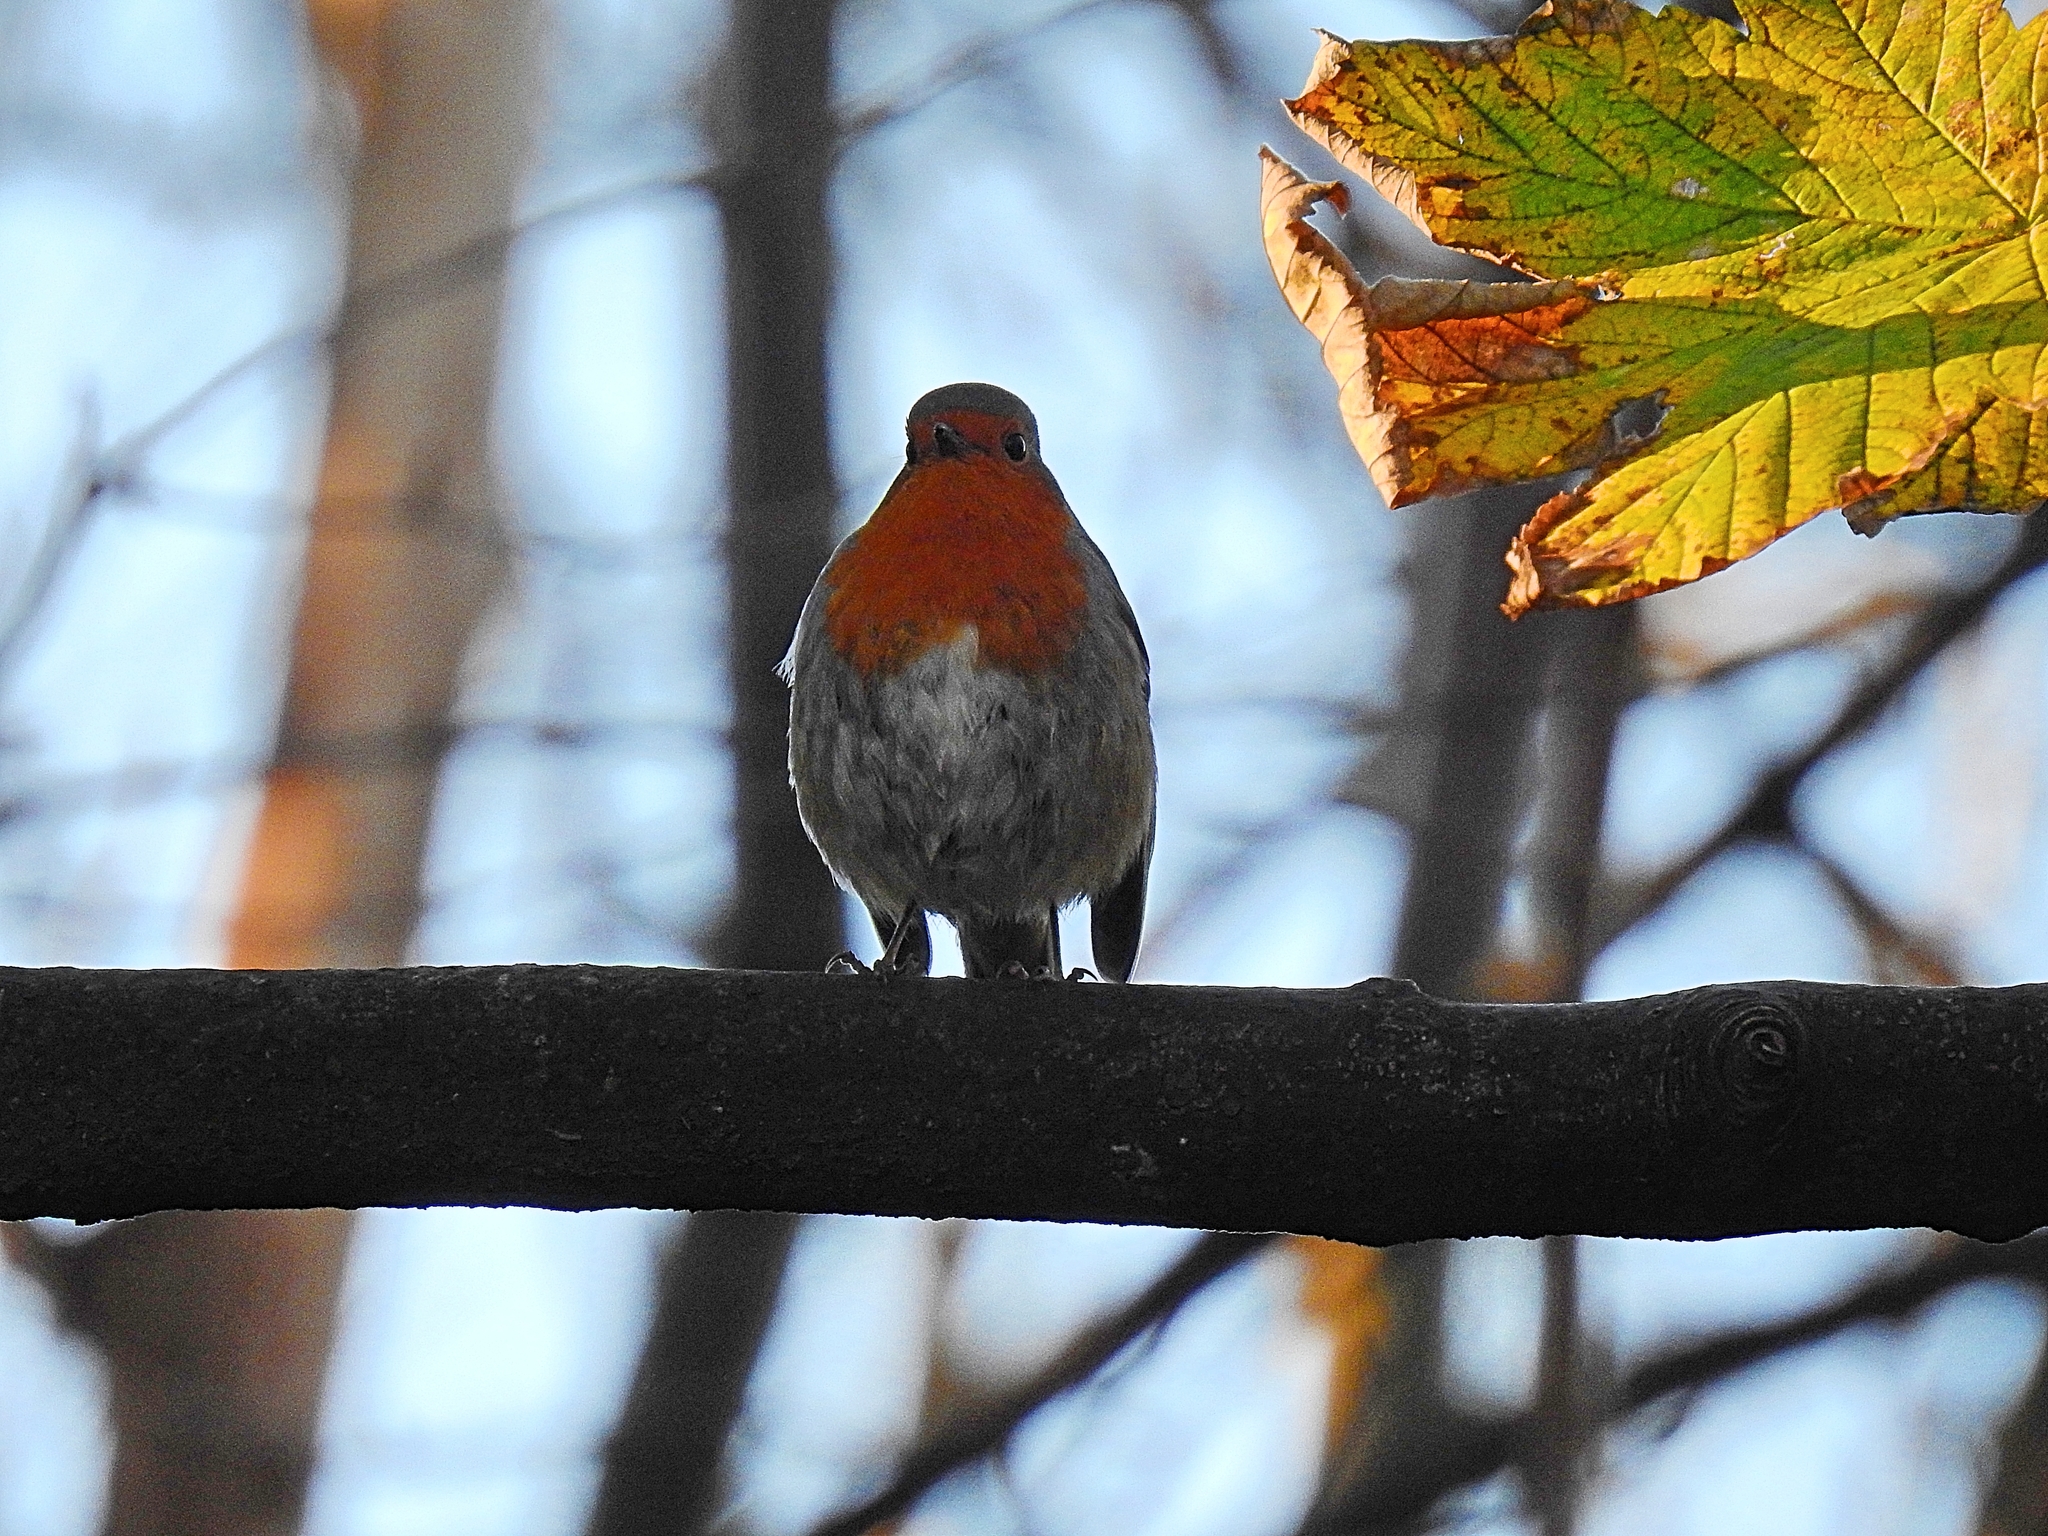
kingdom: Animalia
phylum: Chordata
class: Aves
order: Passeriformes
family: Muscicapidae
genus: Erithacus
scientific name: Erithacus rubecula
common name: European robin
